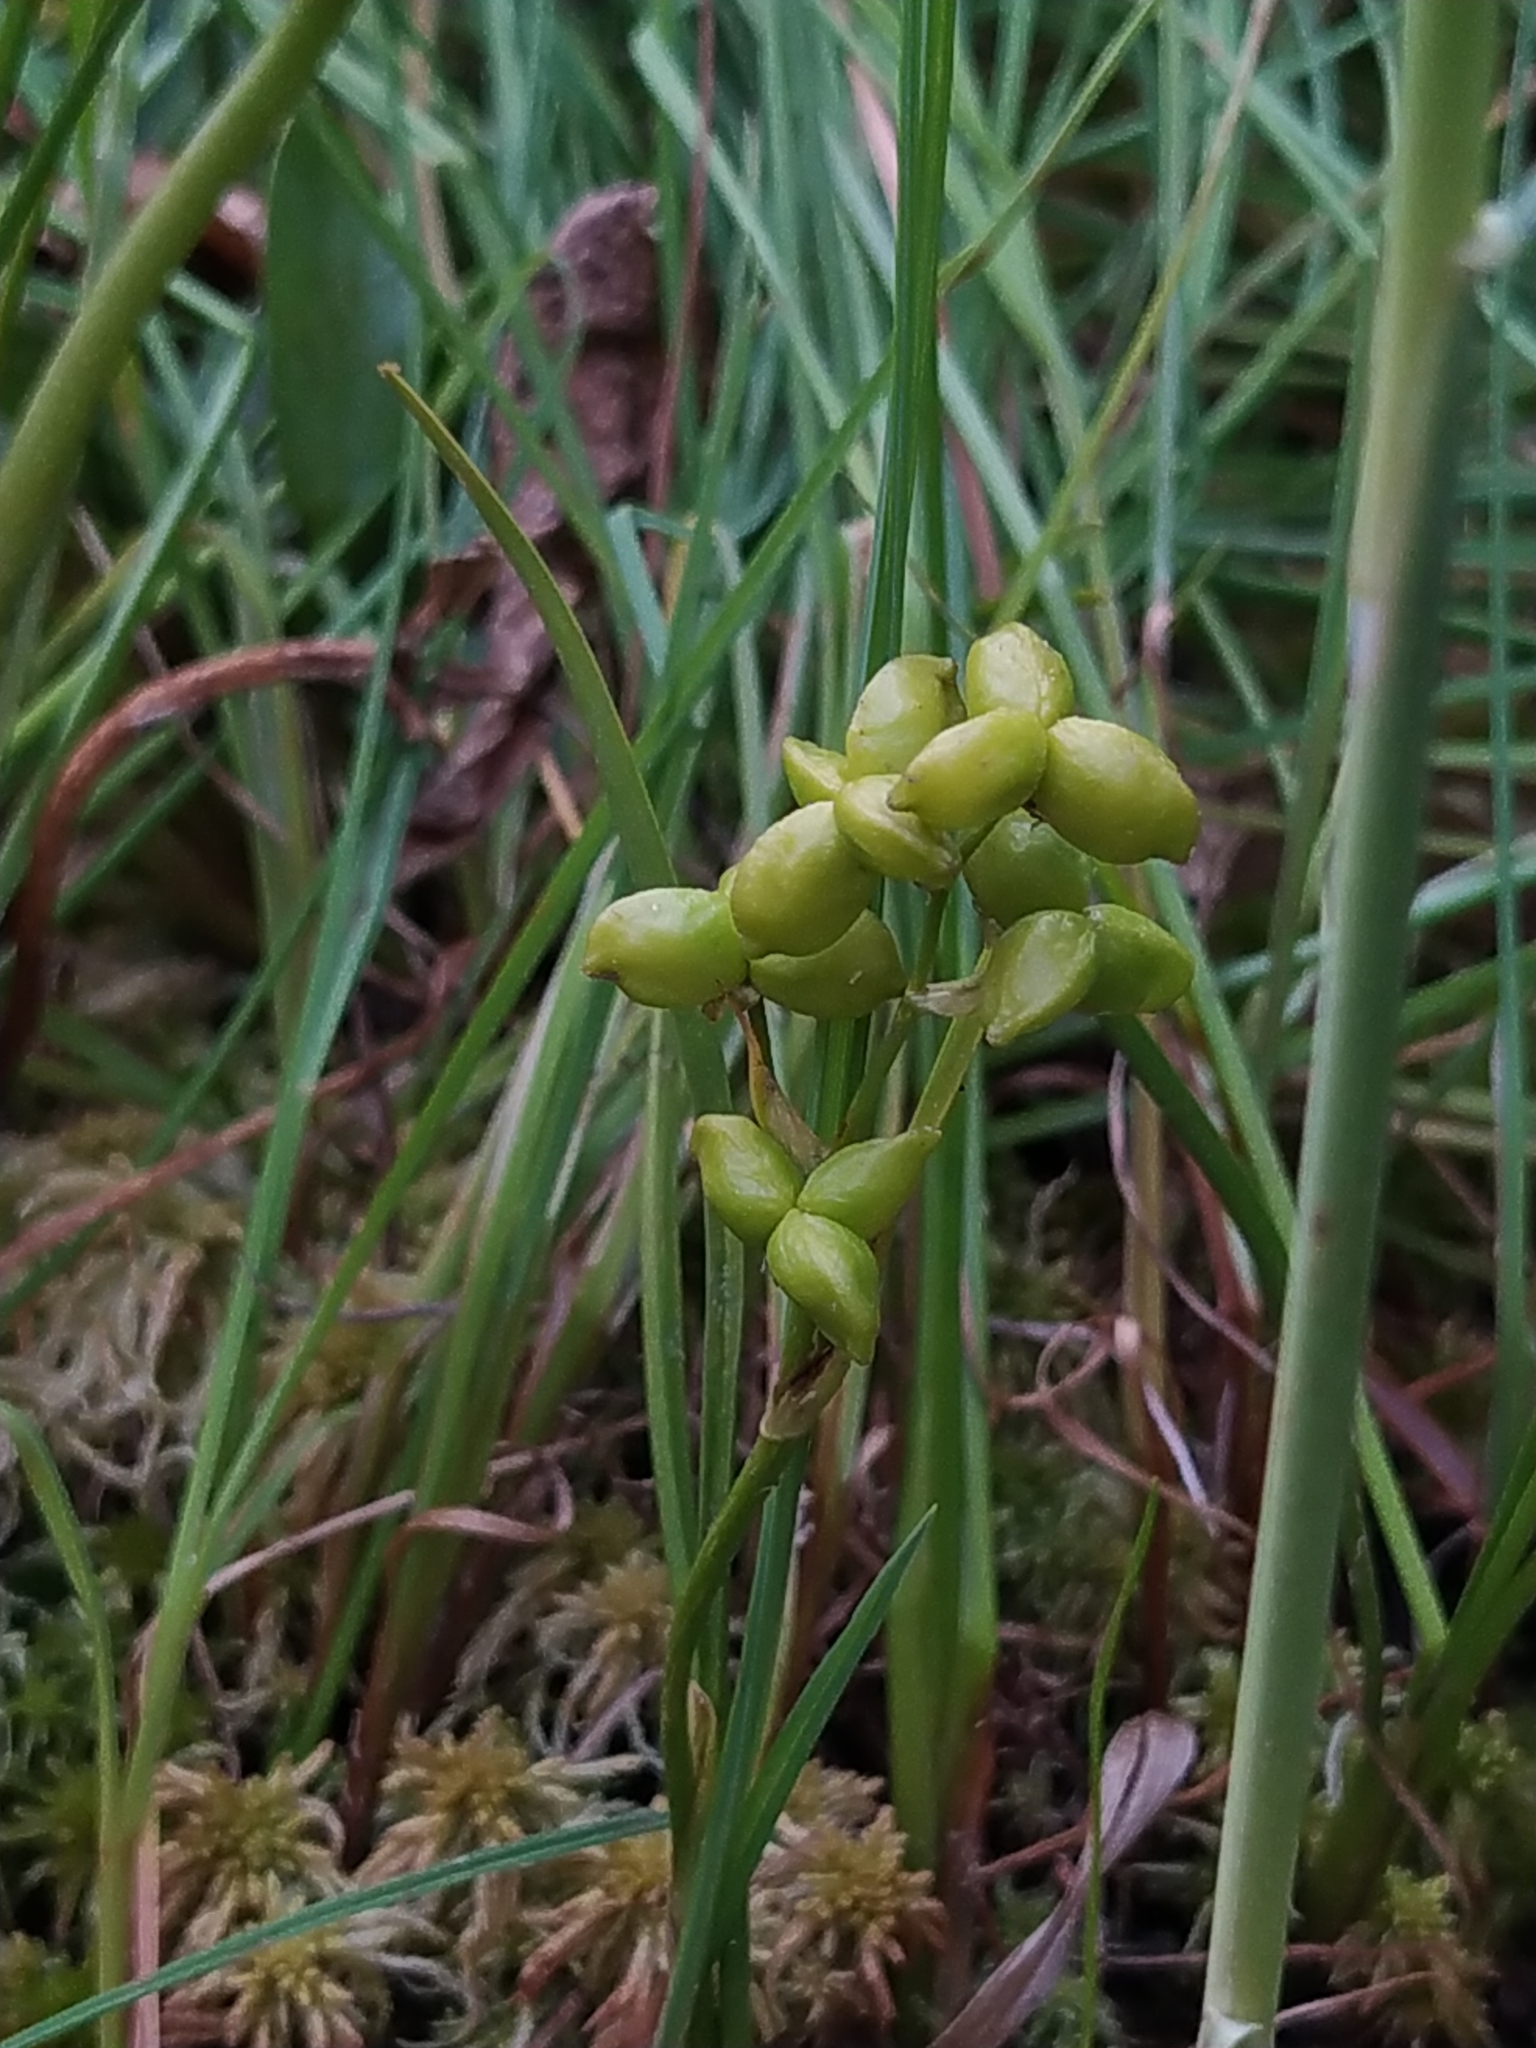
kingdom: Plantae
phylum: Tracheophyta
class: Liliopsida
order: Alismatales
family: Scheuchzeriaceae
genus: Scheuchzeria
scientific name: Scheuchzeria palustris
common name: Rannoch-rush
